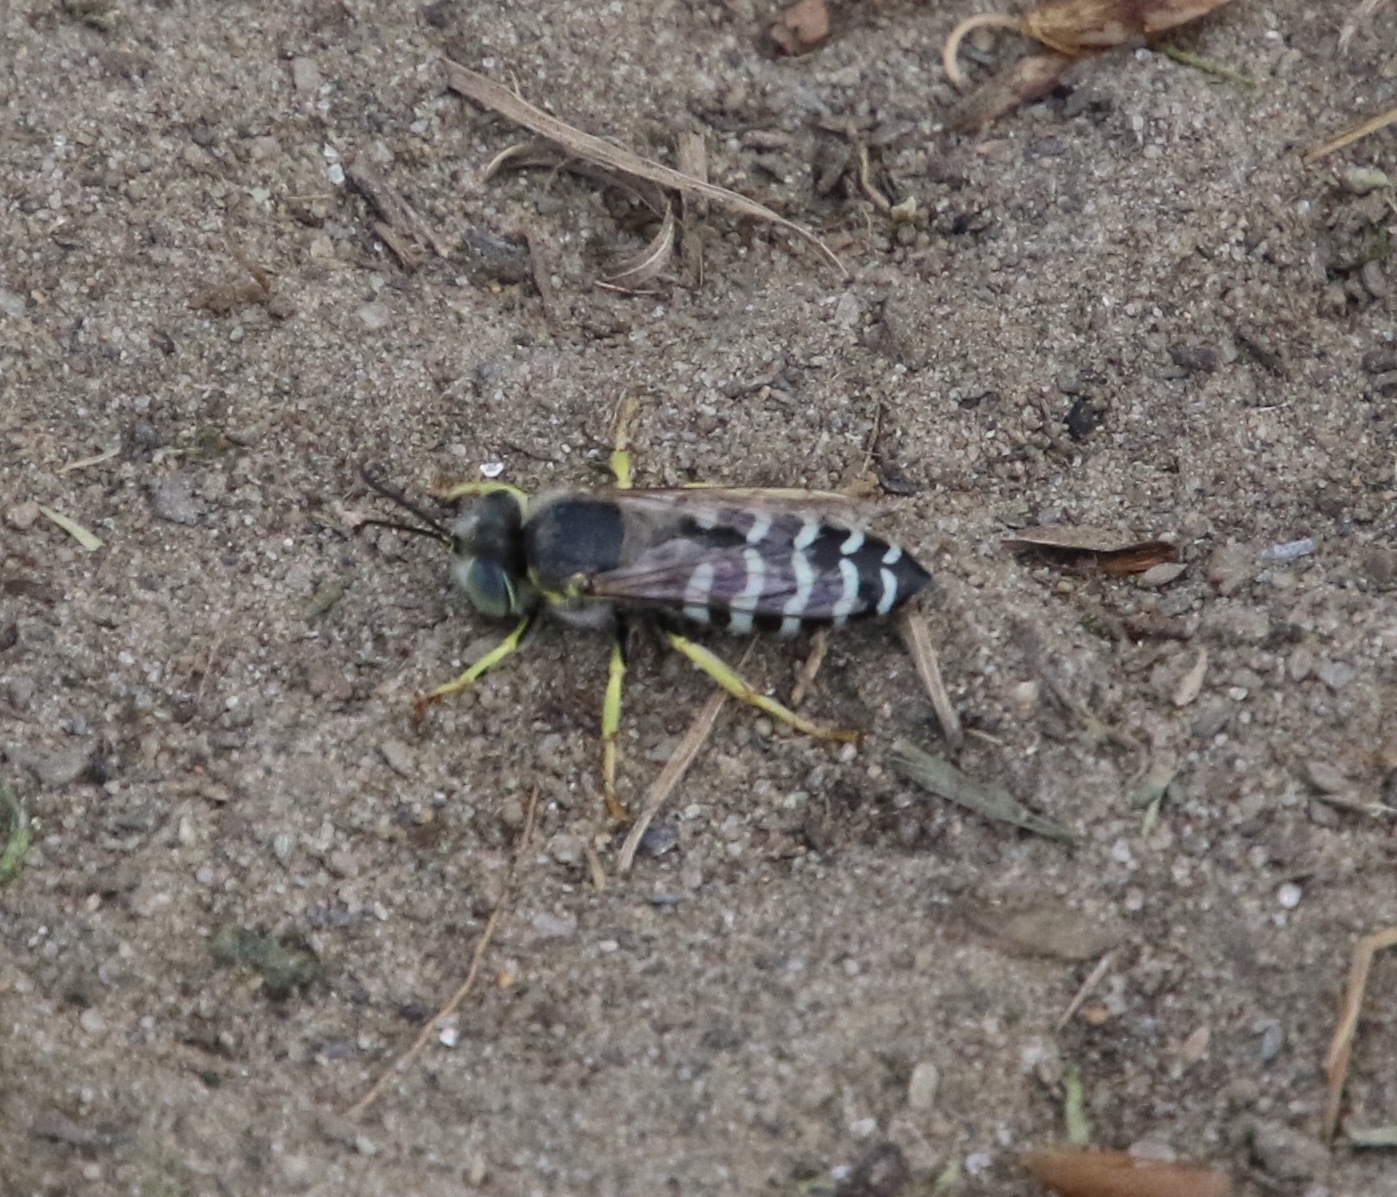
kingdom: Animalia
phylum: Arthropoda
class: Insecta
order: Hymenoptera
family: Crabronidae
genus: Bembix
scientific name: Bembix americana
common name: American sand wasp
